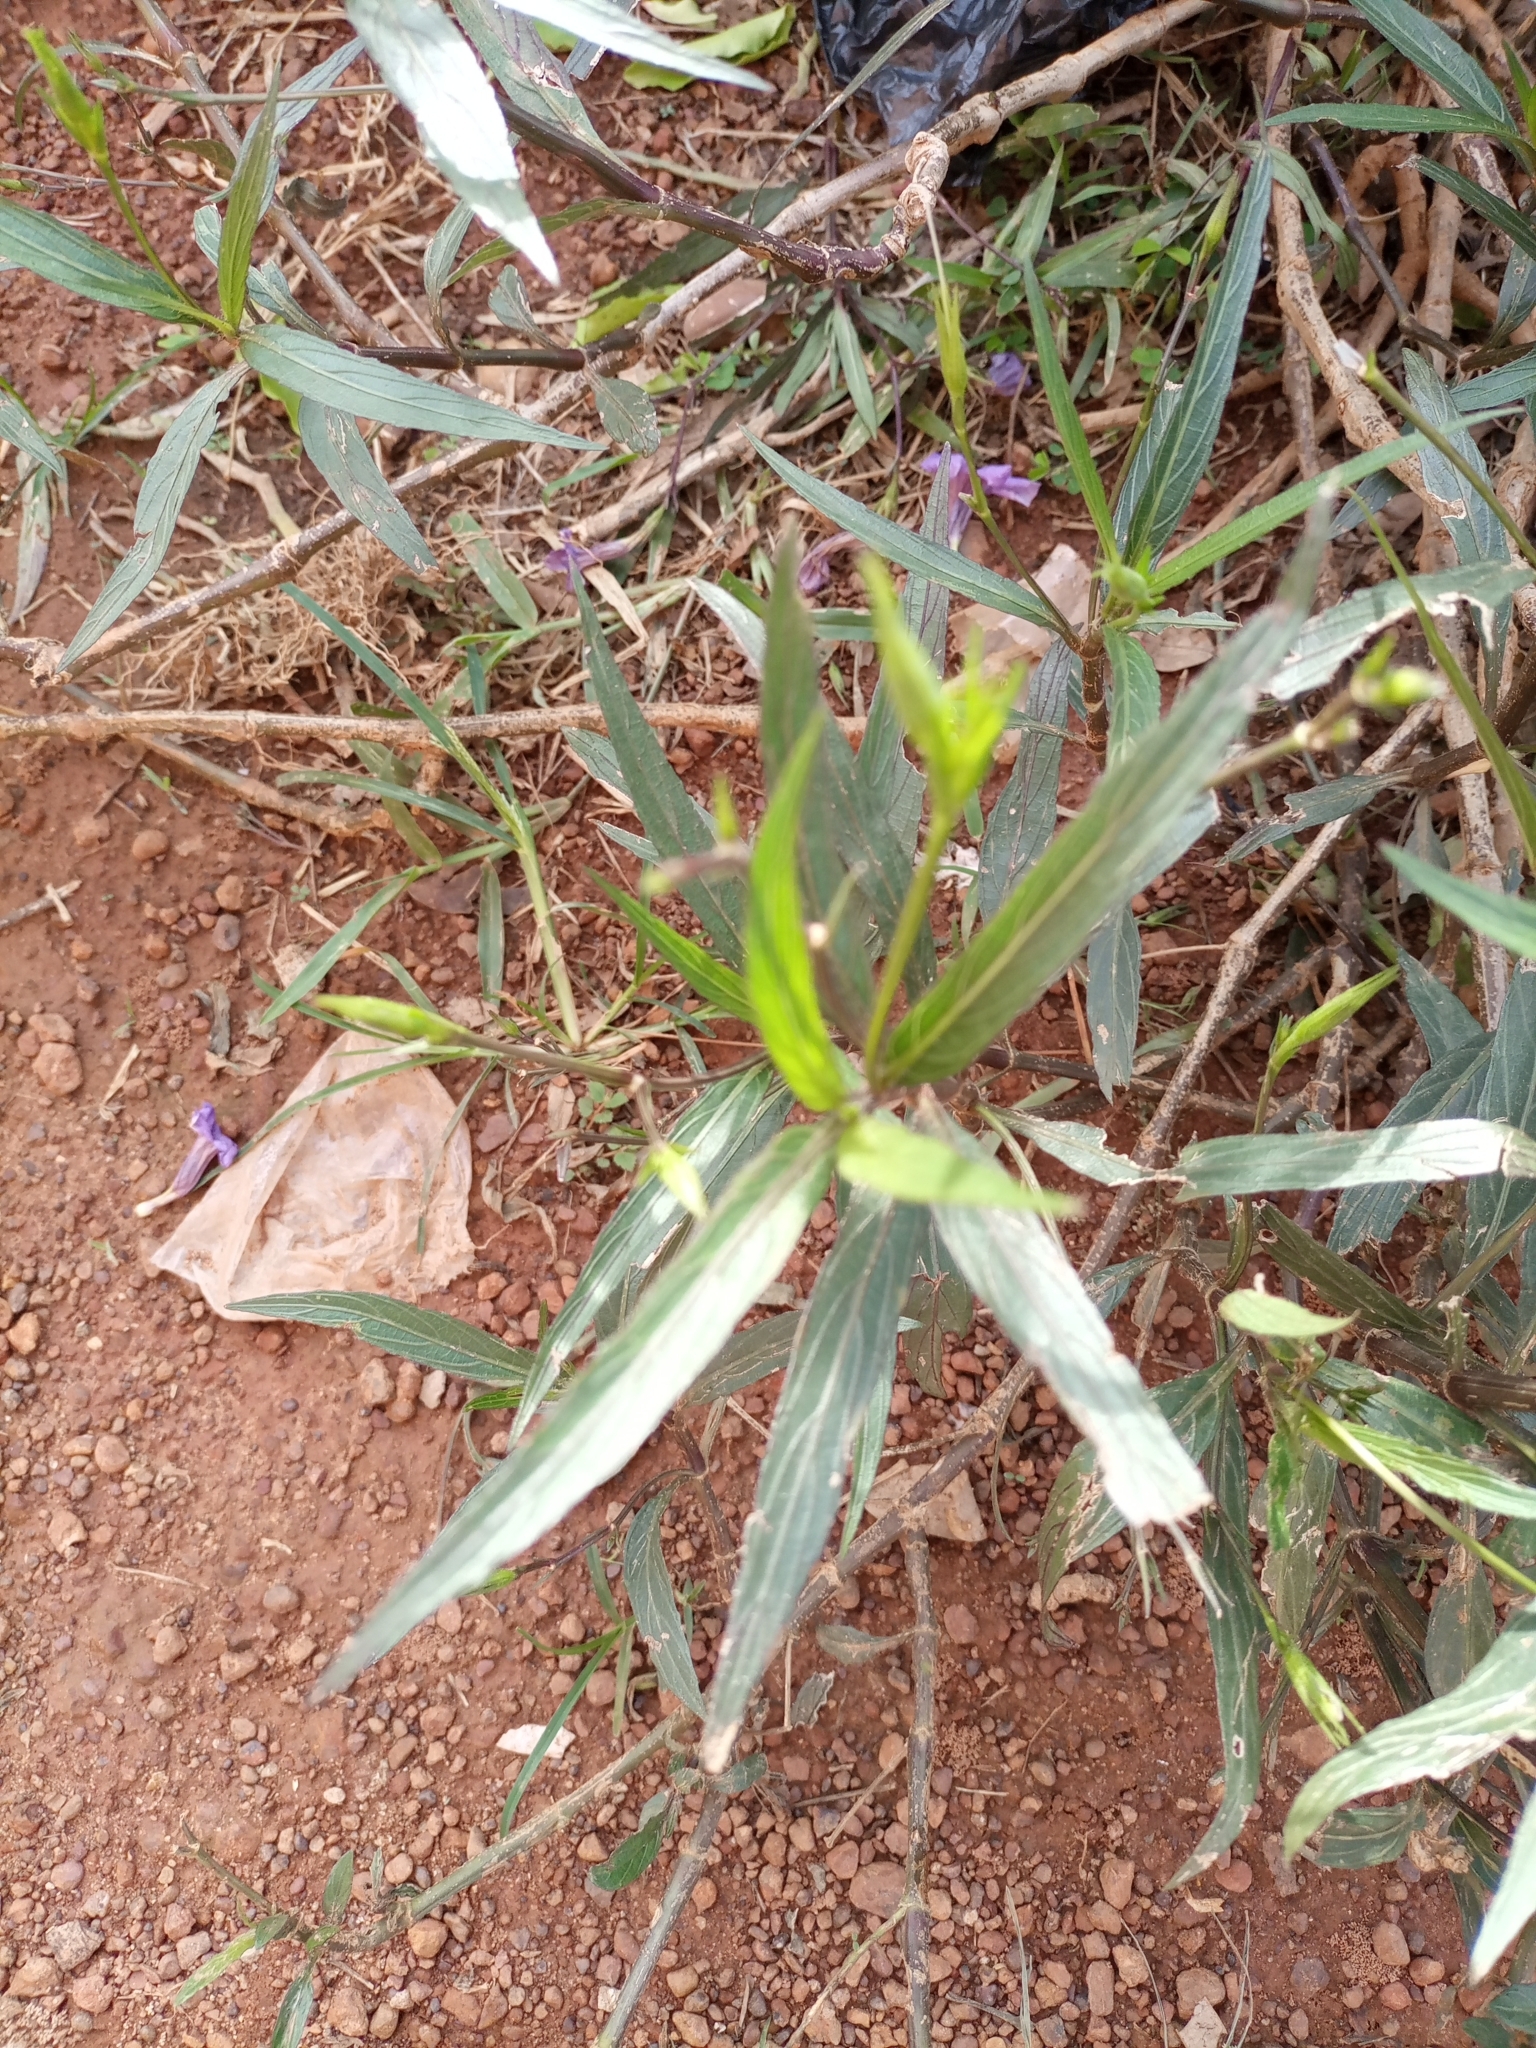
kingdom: Plantae
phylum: Tracheophyta
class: Magnoliopsida
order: Lamiales
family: Acanthaceae
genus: Ruellia
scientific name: Ruellia simplex
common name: Softseed wild petunia
